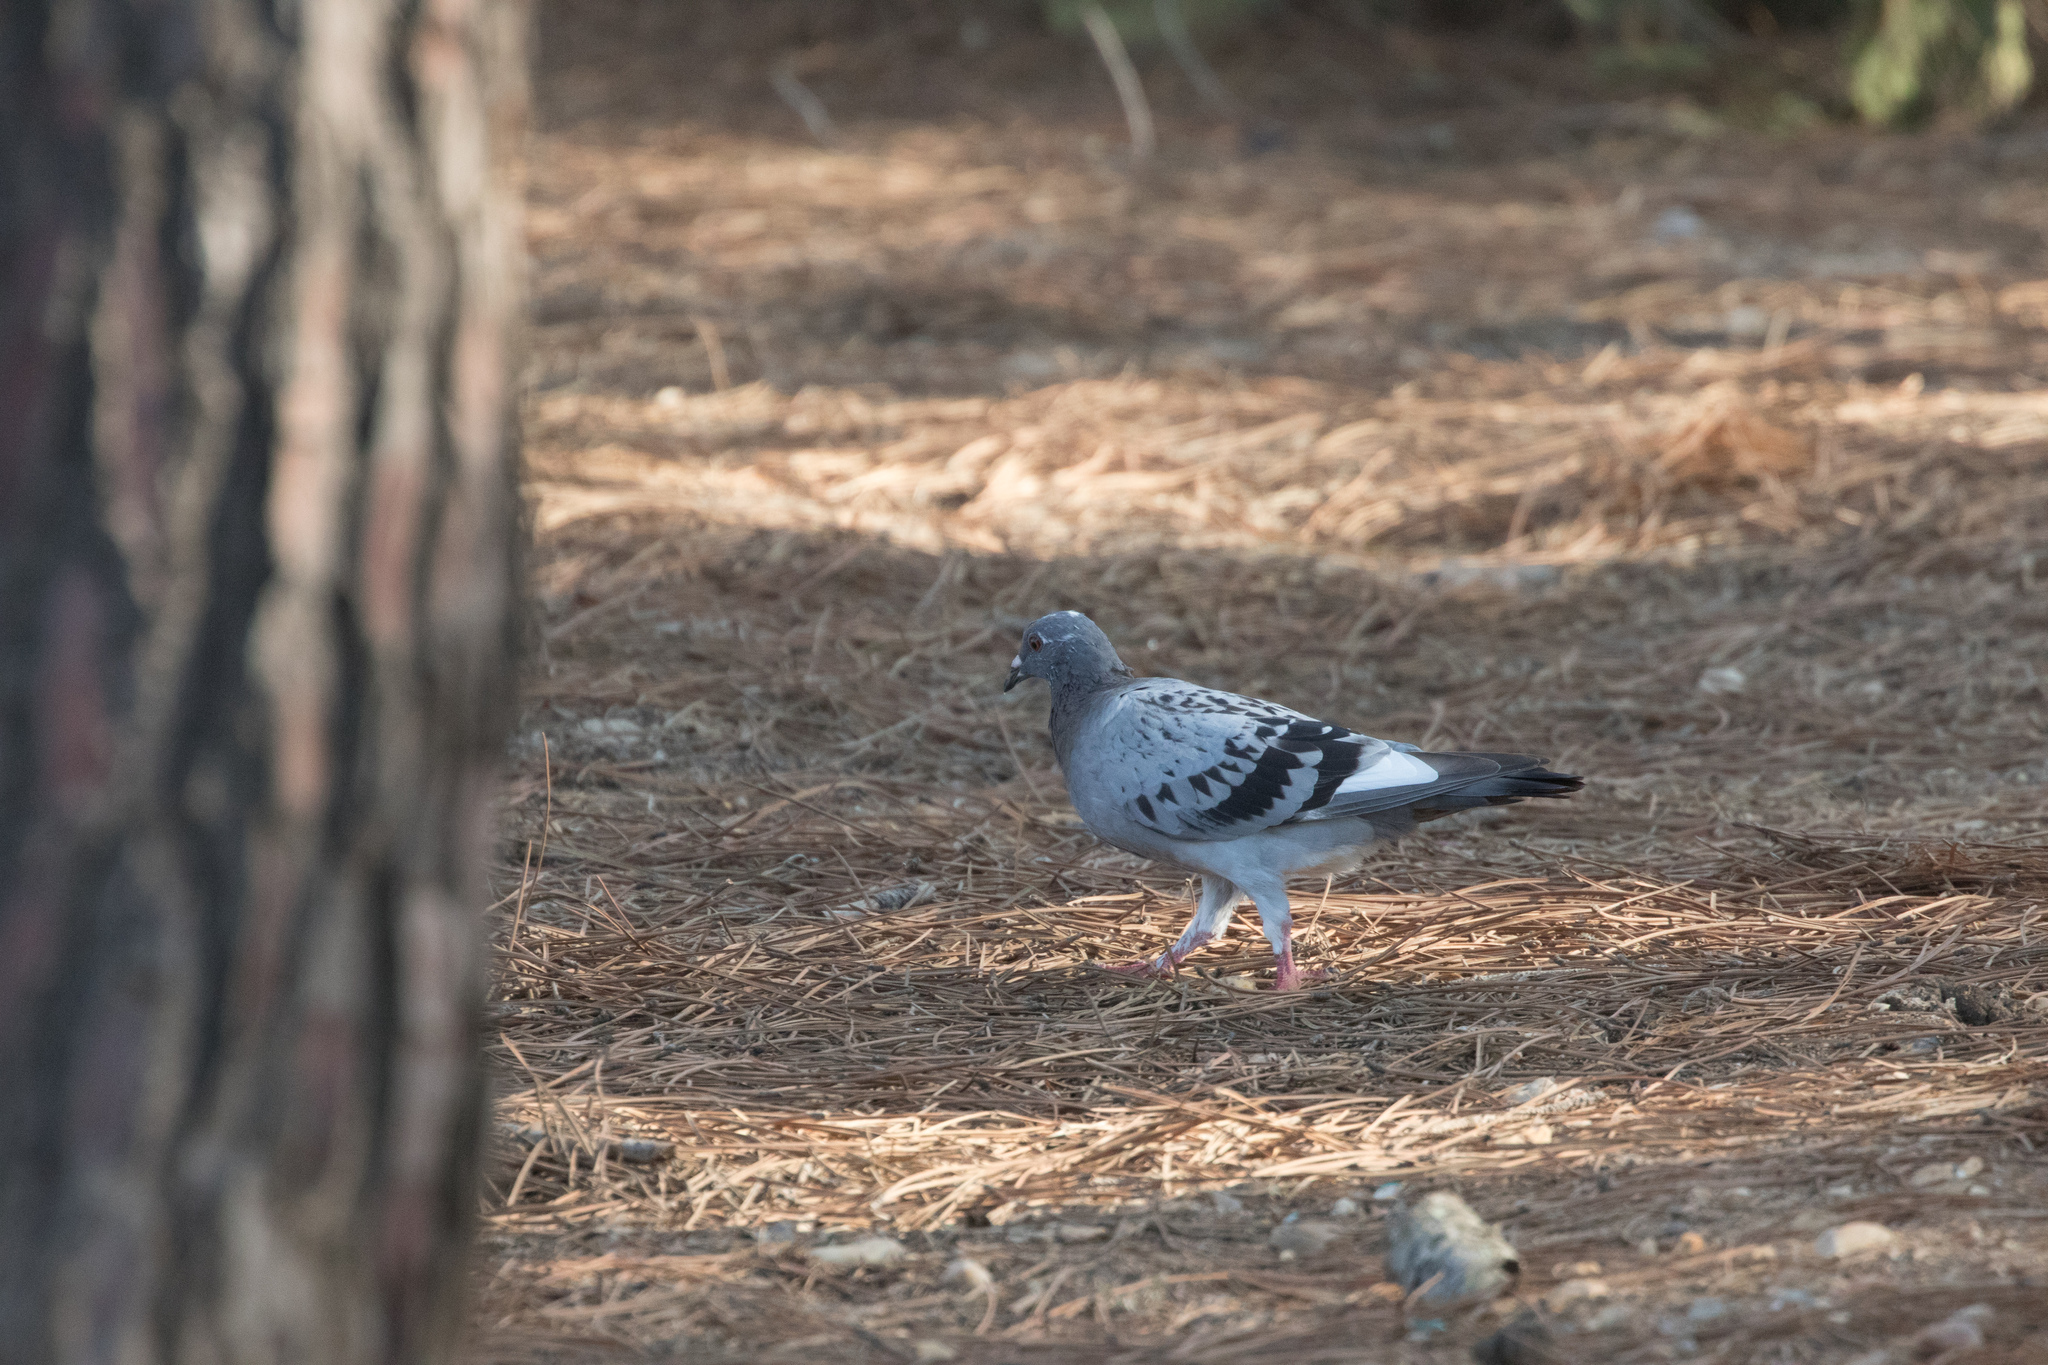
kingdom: Animalia
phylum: Chordata
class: Aves
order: Columbiformes
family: Columbidae
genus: Columba
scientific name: Columba livia
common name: Rock pigeon
